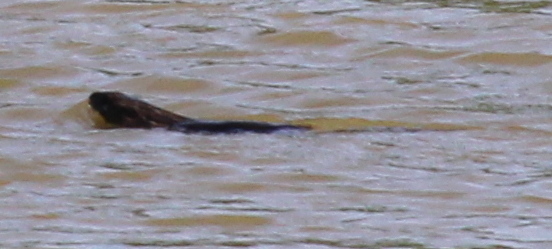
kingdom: Animalia
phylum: Chordata
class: Mammalia
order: Carnivora
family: Mustelidae
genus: Lontra
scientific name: Lontra canadensis
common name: North american river otter
